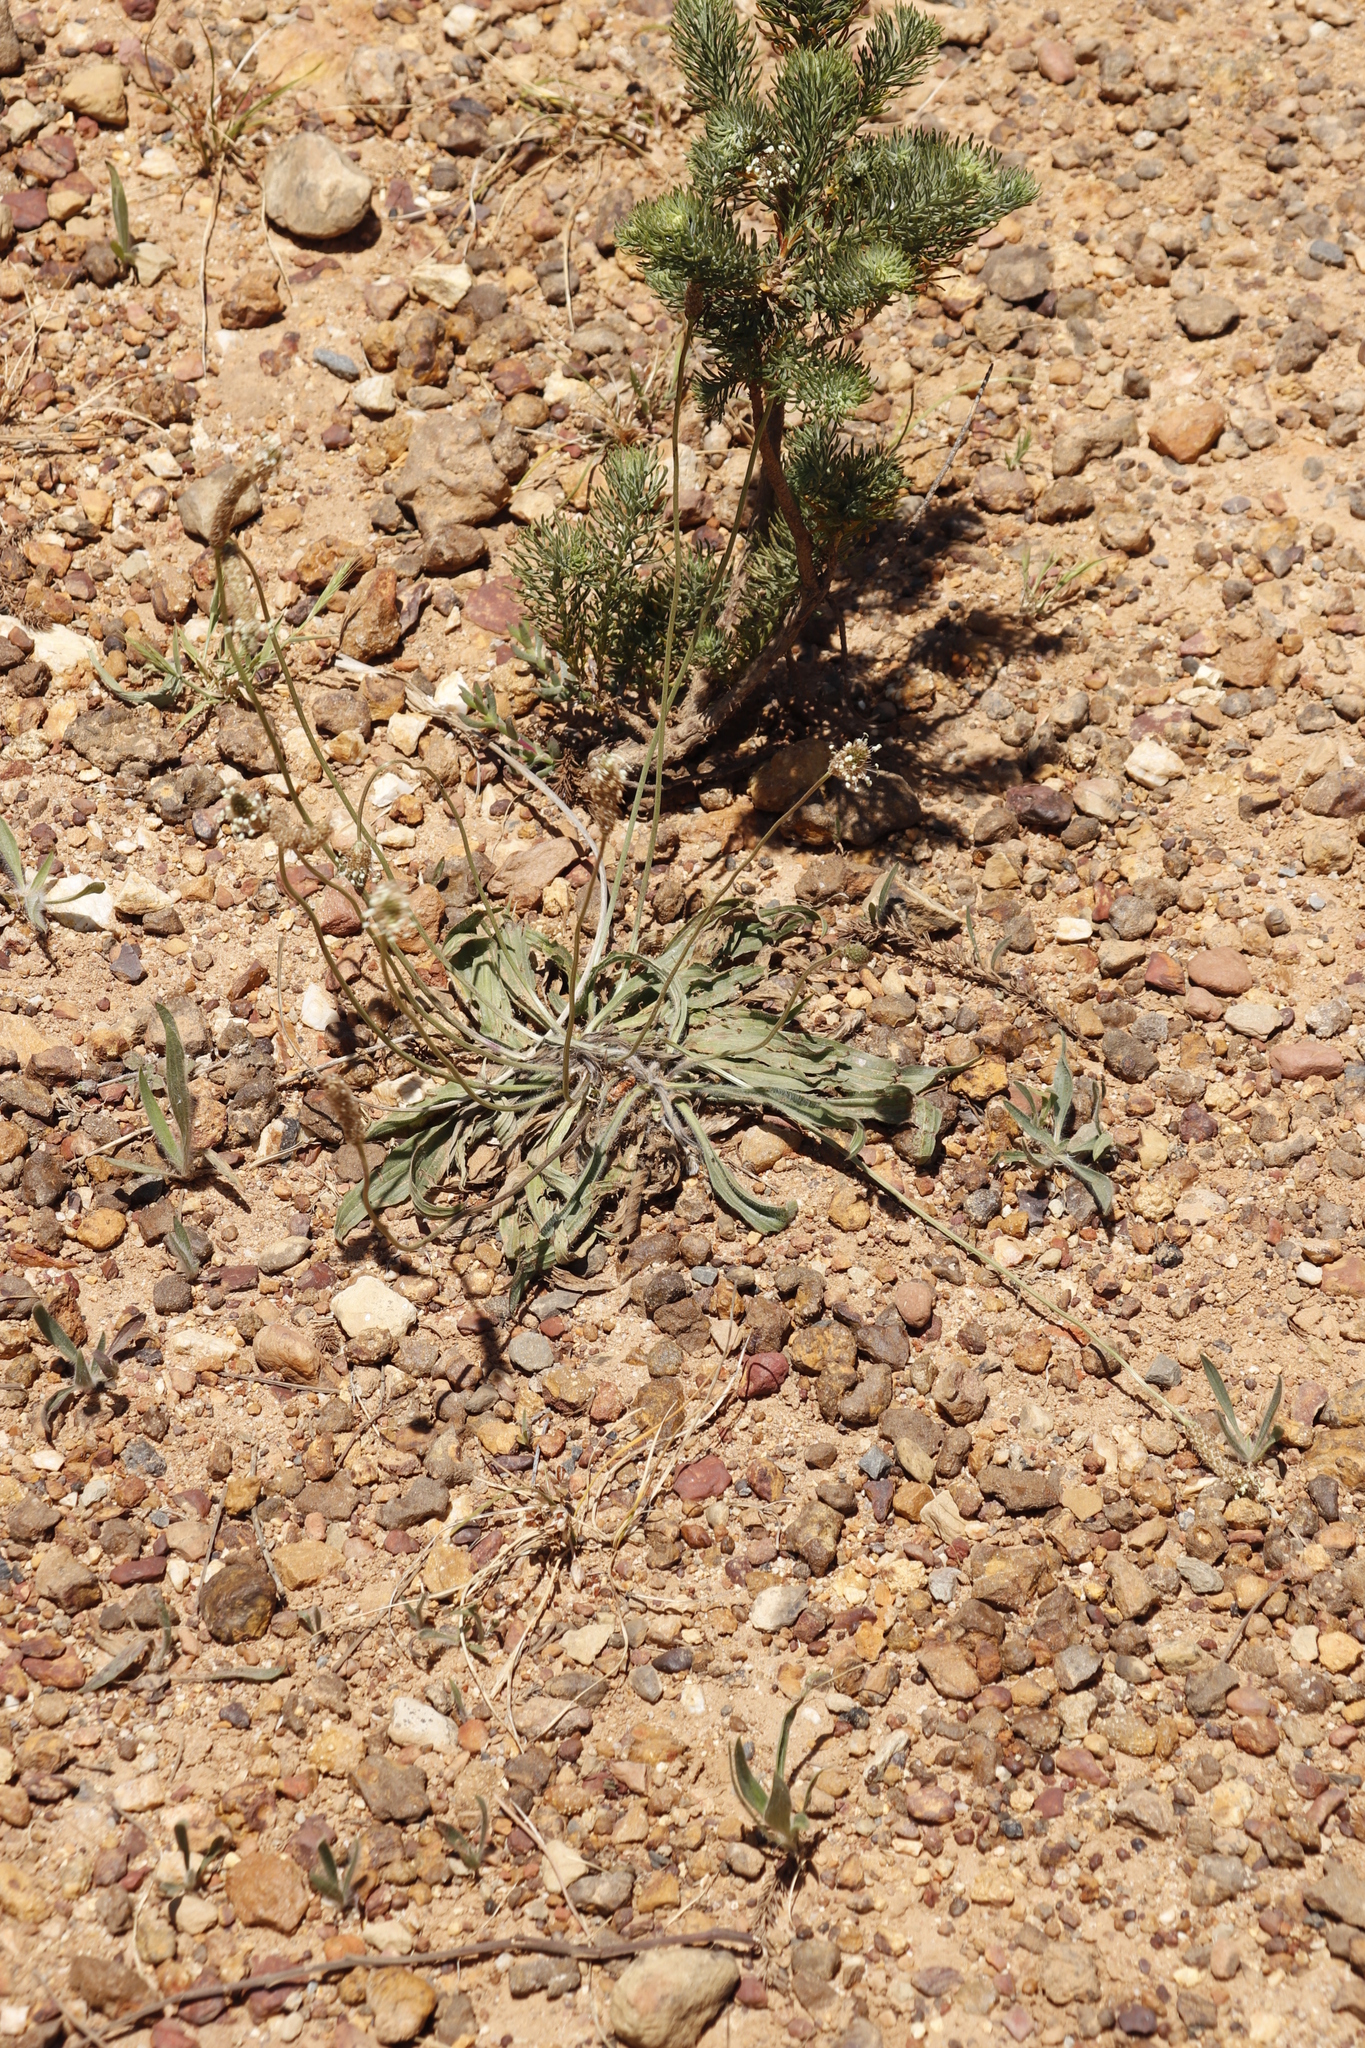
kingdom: Plantae
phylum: Tracheophyta
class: Magnoliopsida
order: Lamiales
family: Plantaginaceae
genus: Plantago
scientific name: Plantago lanceolata
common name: Ribwort plantain
